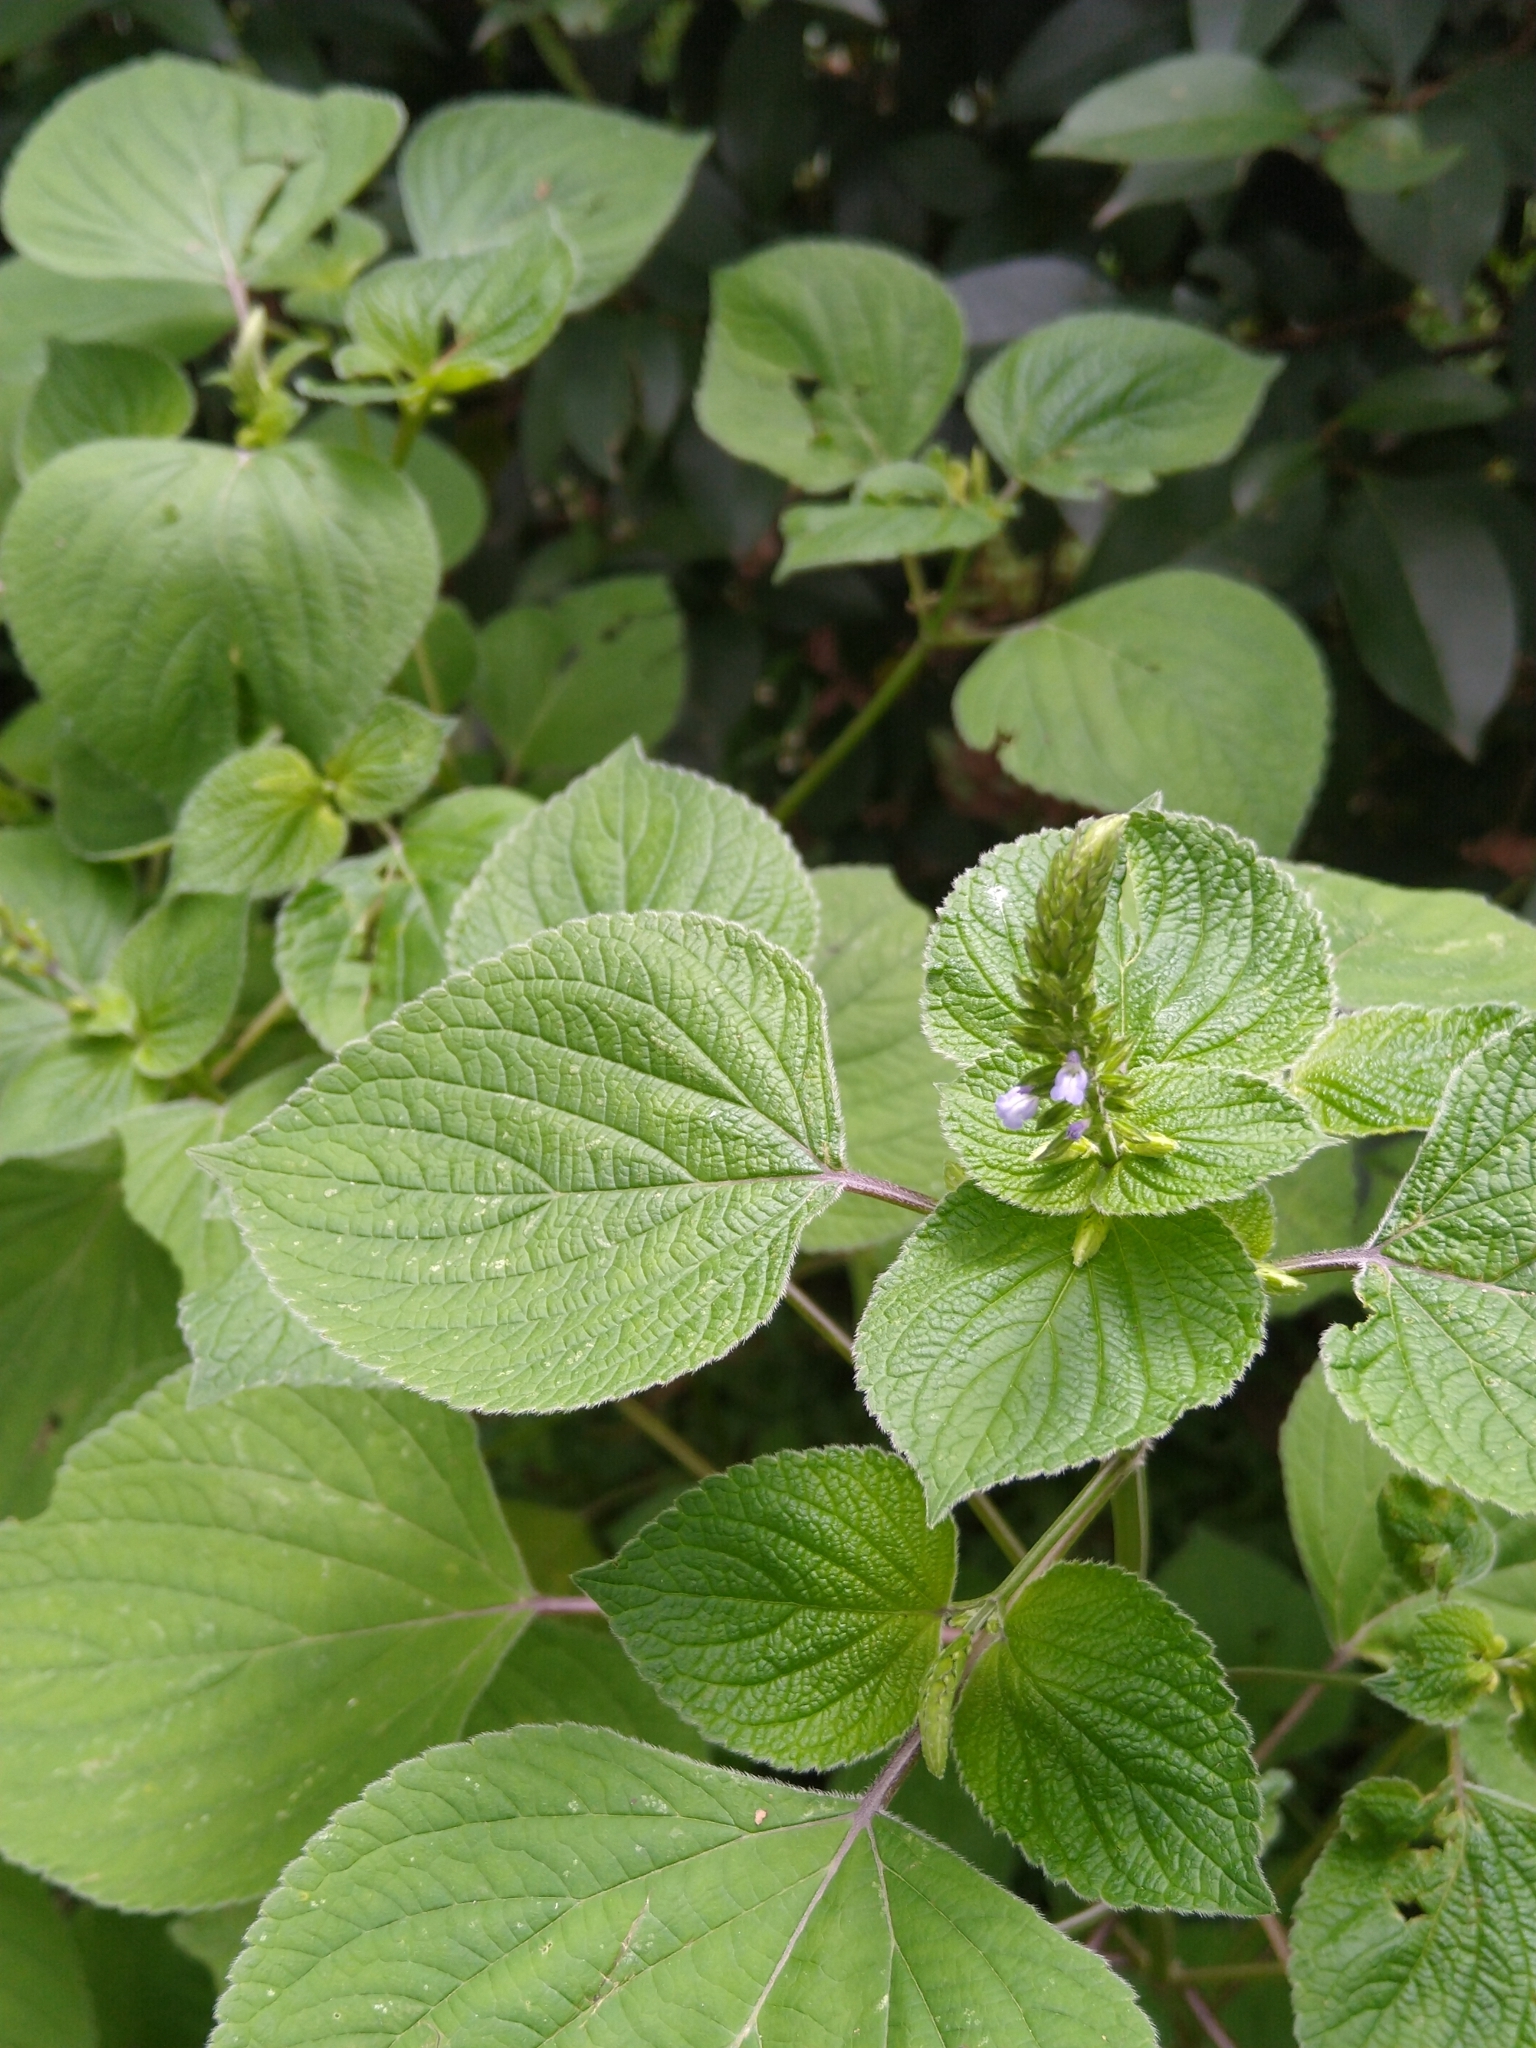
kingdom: Plantae
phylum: Tracheophyta
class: Magnoliopsida
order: Lamiales
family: Lamiaceae
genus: Salvia
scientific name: Salvia tiliifolia
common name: Lindenleaf sage
